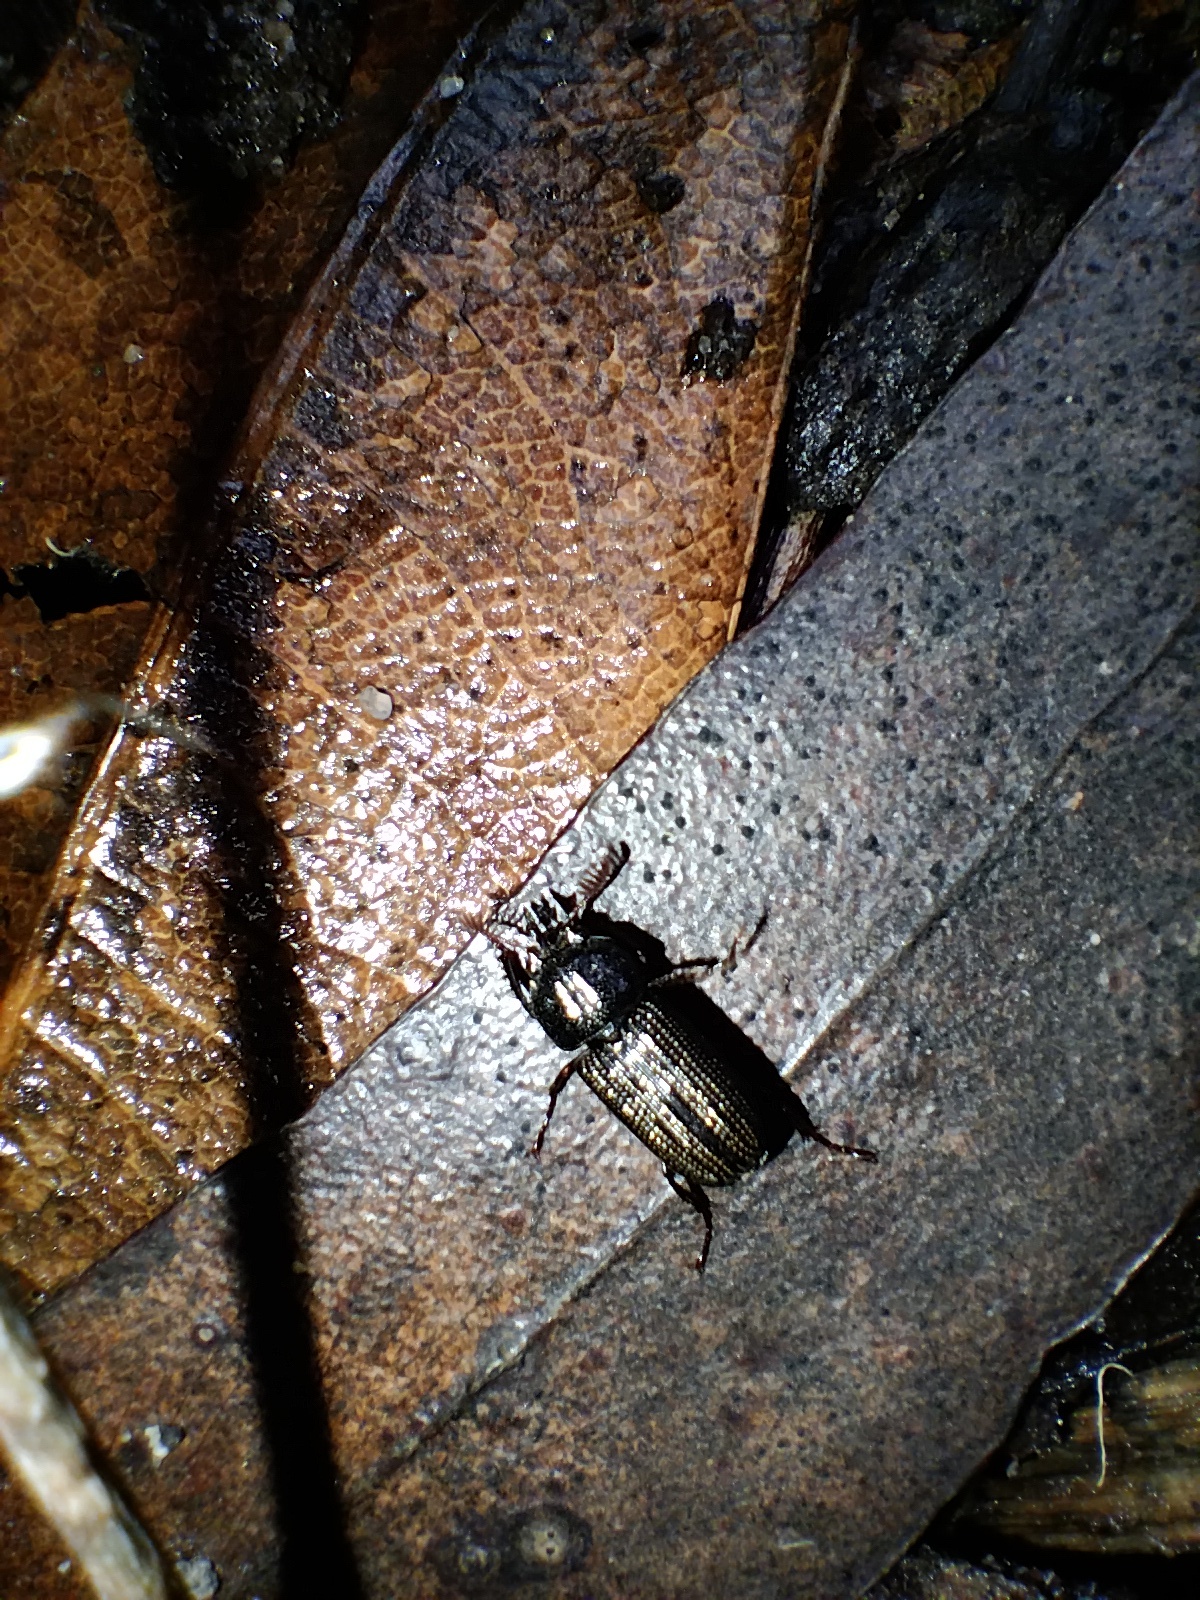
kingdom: Animalia
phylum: Arthropoda
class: Insecta
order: Coleoptera
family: Lucanidae
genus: Syndesus
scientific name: Syndesus cornutus
